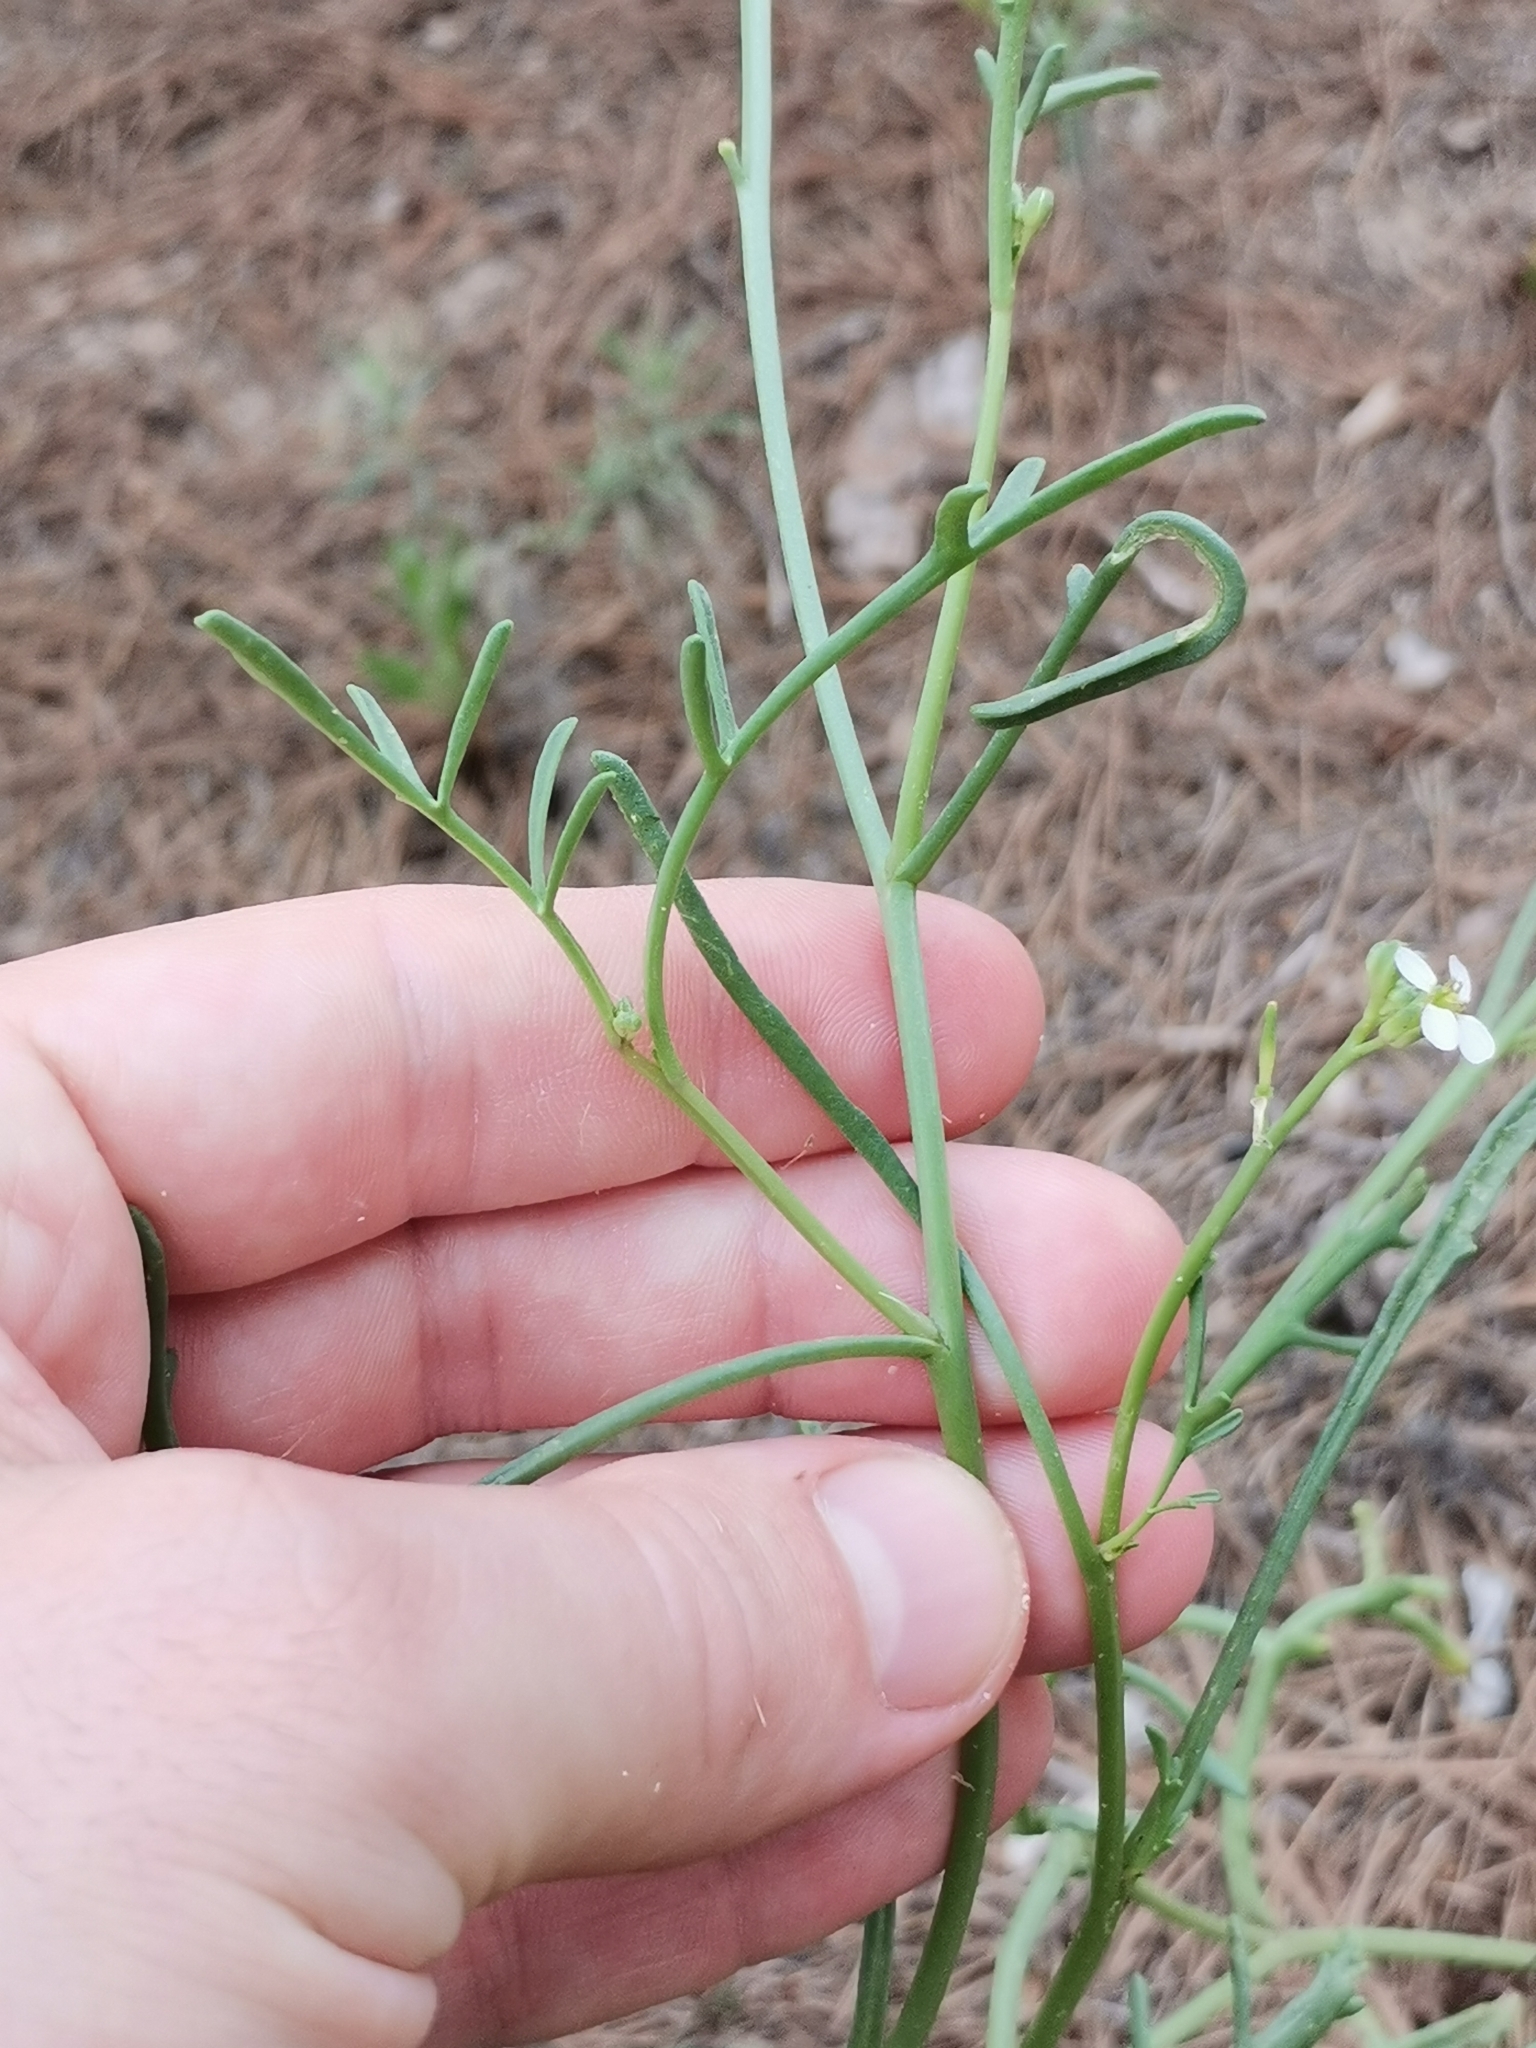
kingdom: Plantae
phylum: Tracheophyta
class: Magnoliopsida
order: Brassicales
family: Brassicaceae
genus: Cakile
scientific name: Cakile maritima
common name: Sea rocket
